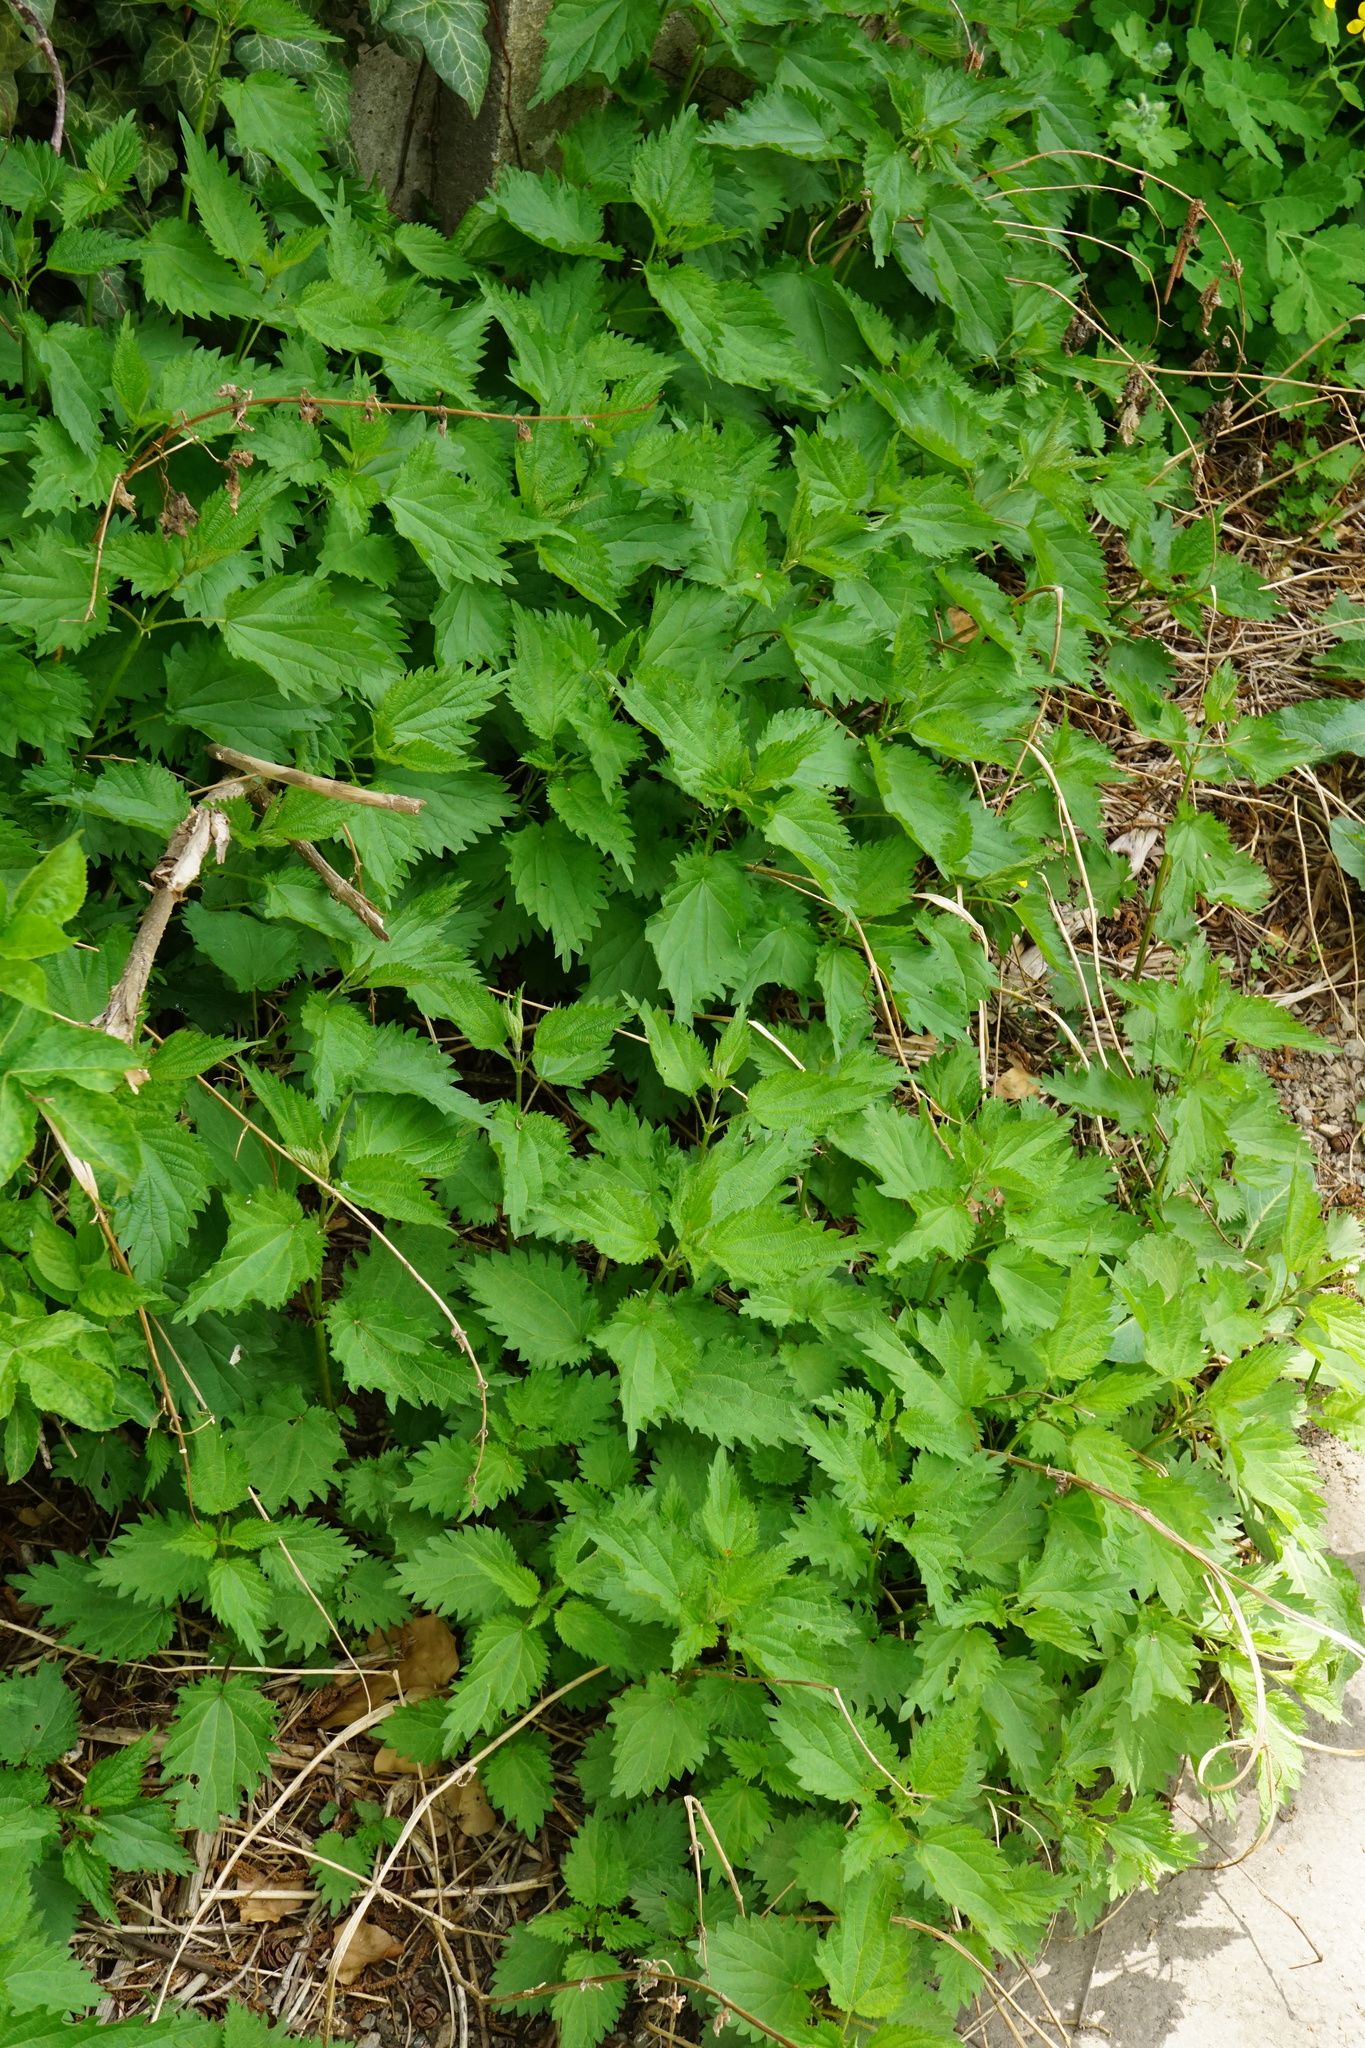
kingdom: Plantae
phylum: Tracheophyta
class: Magnoliopsida
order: Rosales
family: Urticaceae
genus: Urtica
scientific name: Urtica dioica
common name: Common nettle
